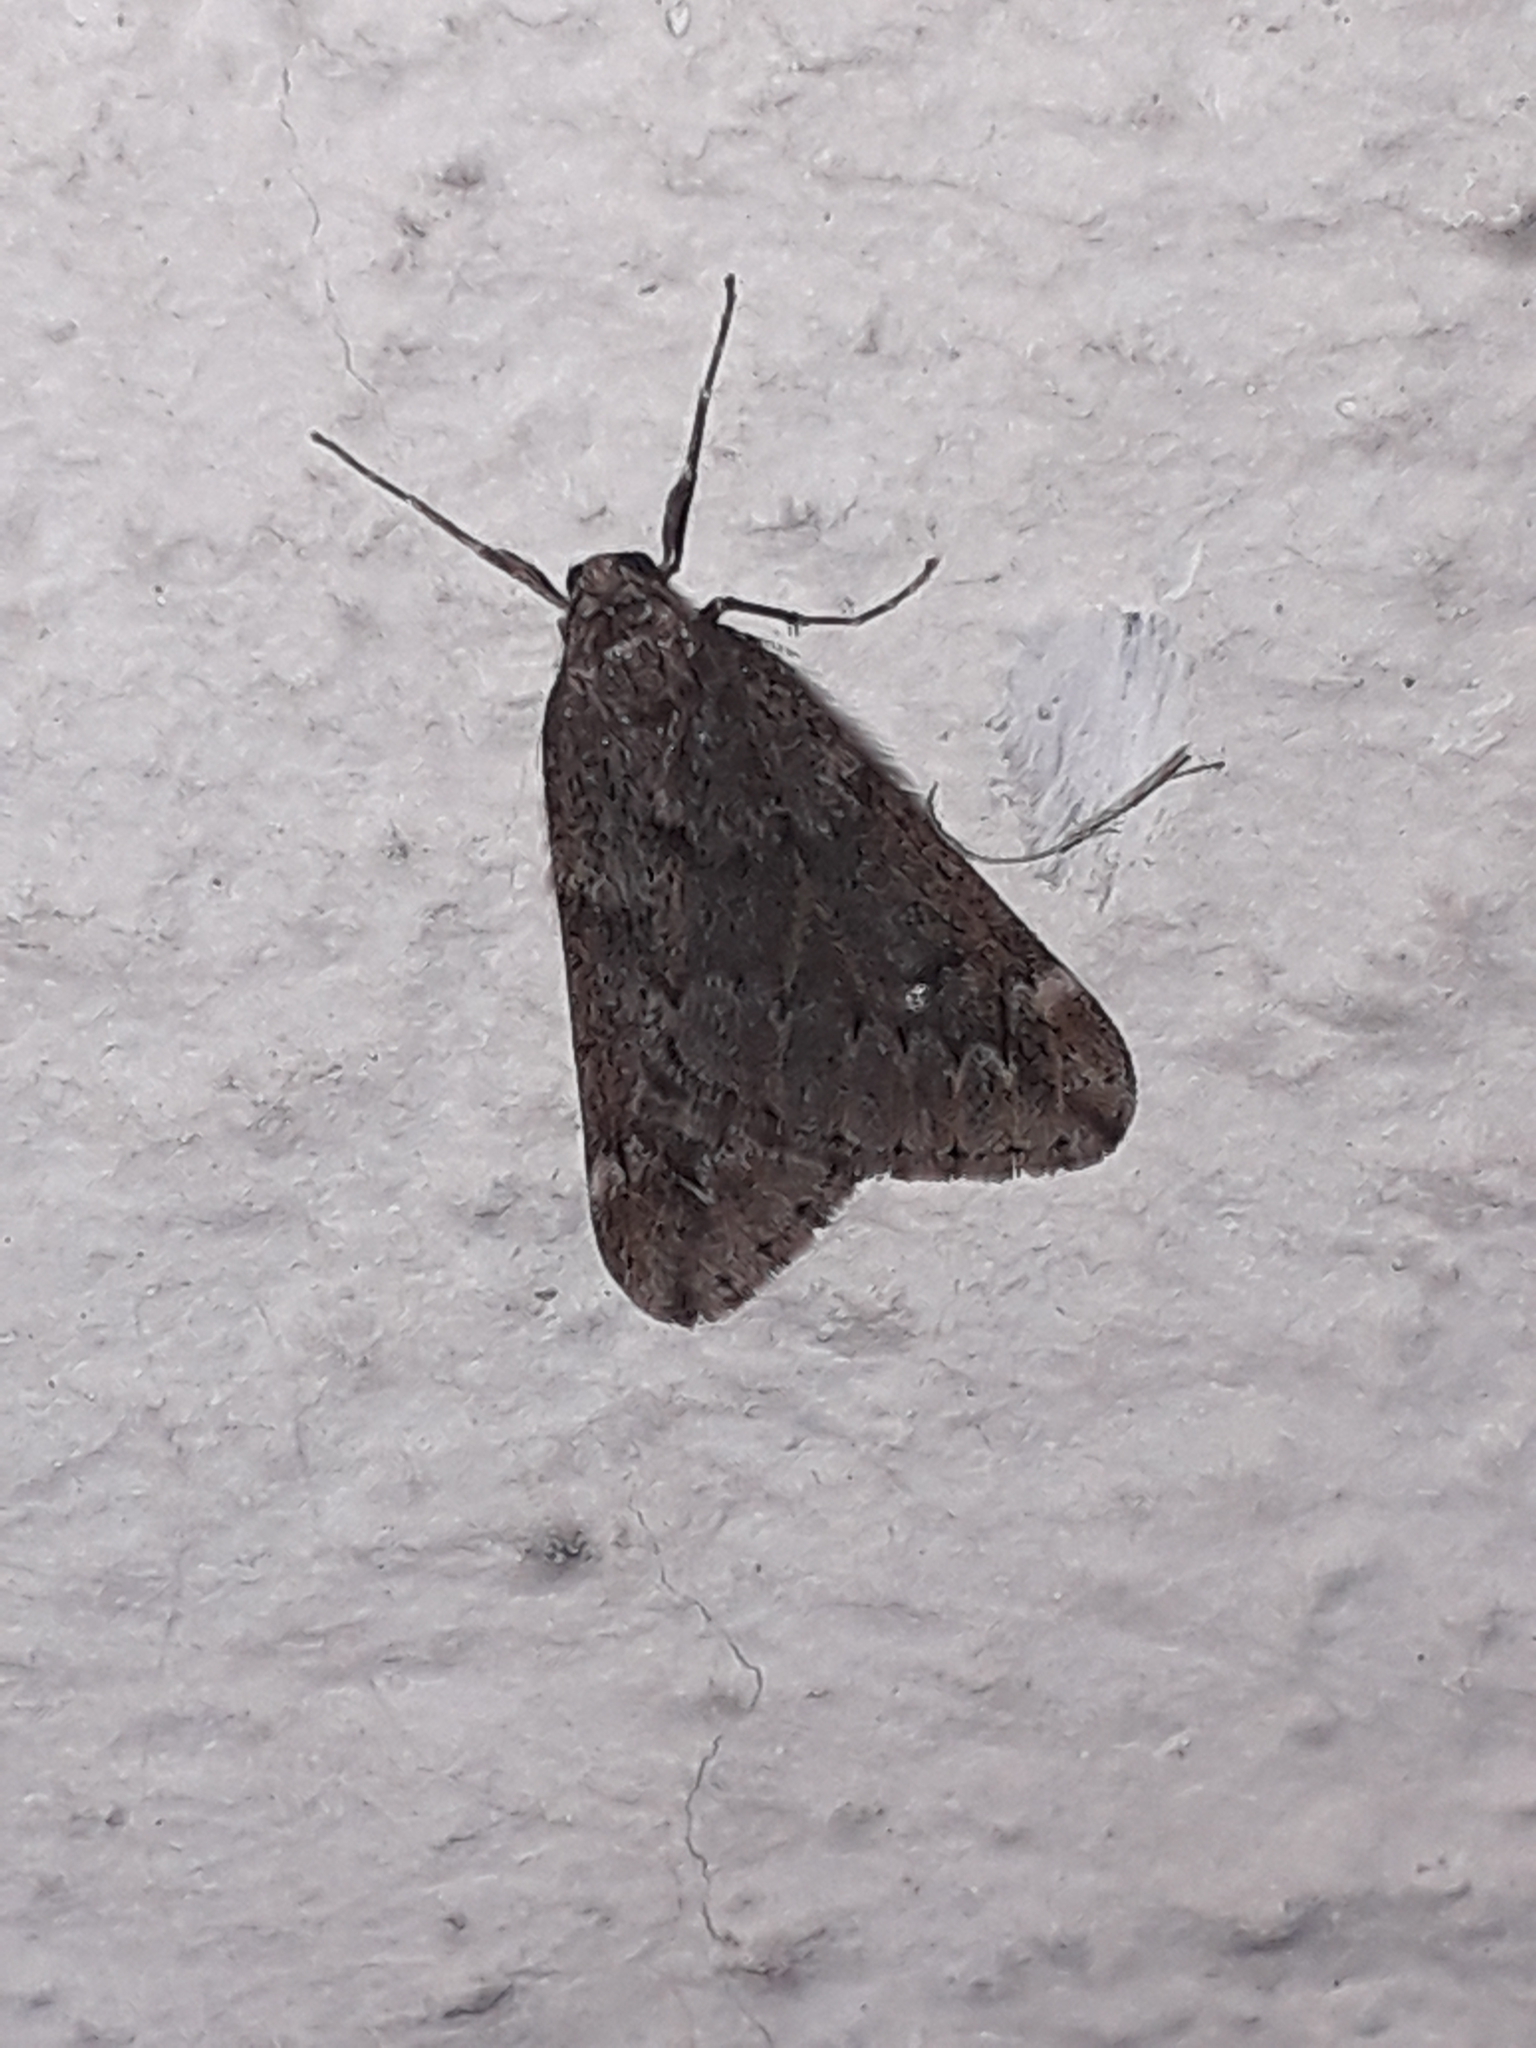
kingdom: Animalia
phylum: Arthropoda
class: Insecta
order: Lepidoptera
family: Geometridae
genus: Alsophila
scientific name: Alsophila aescularia
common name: March moth
